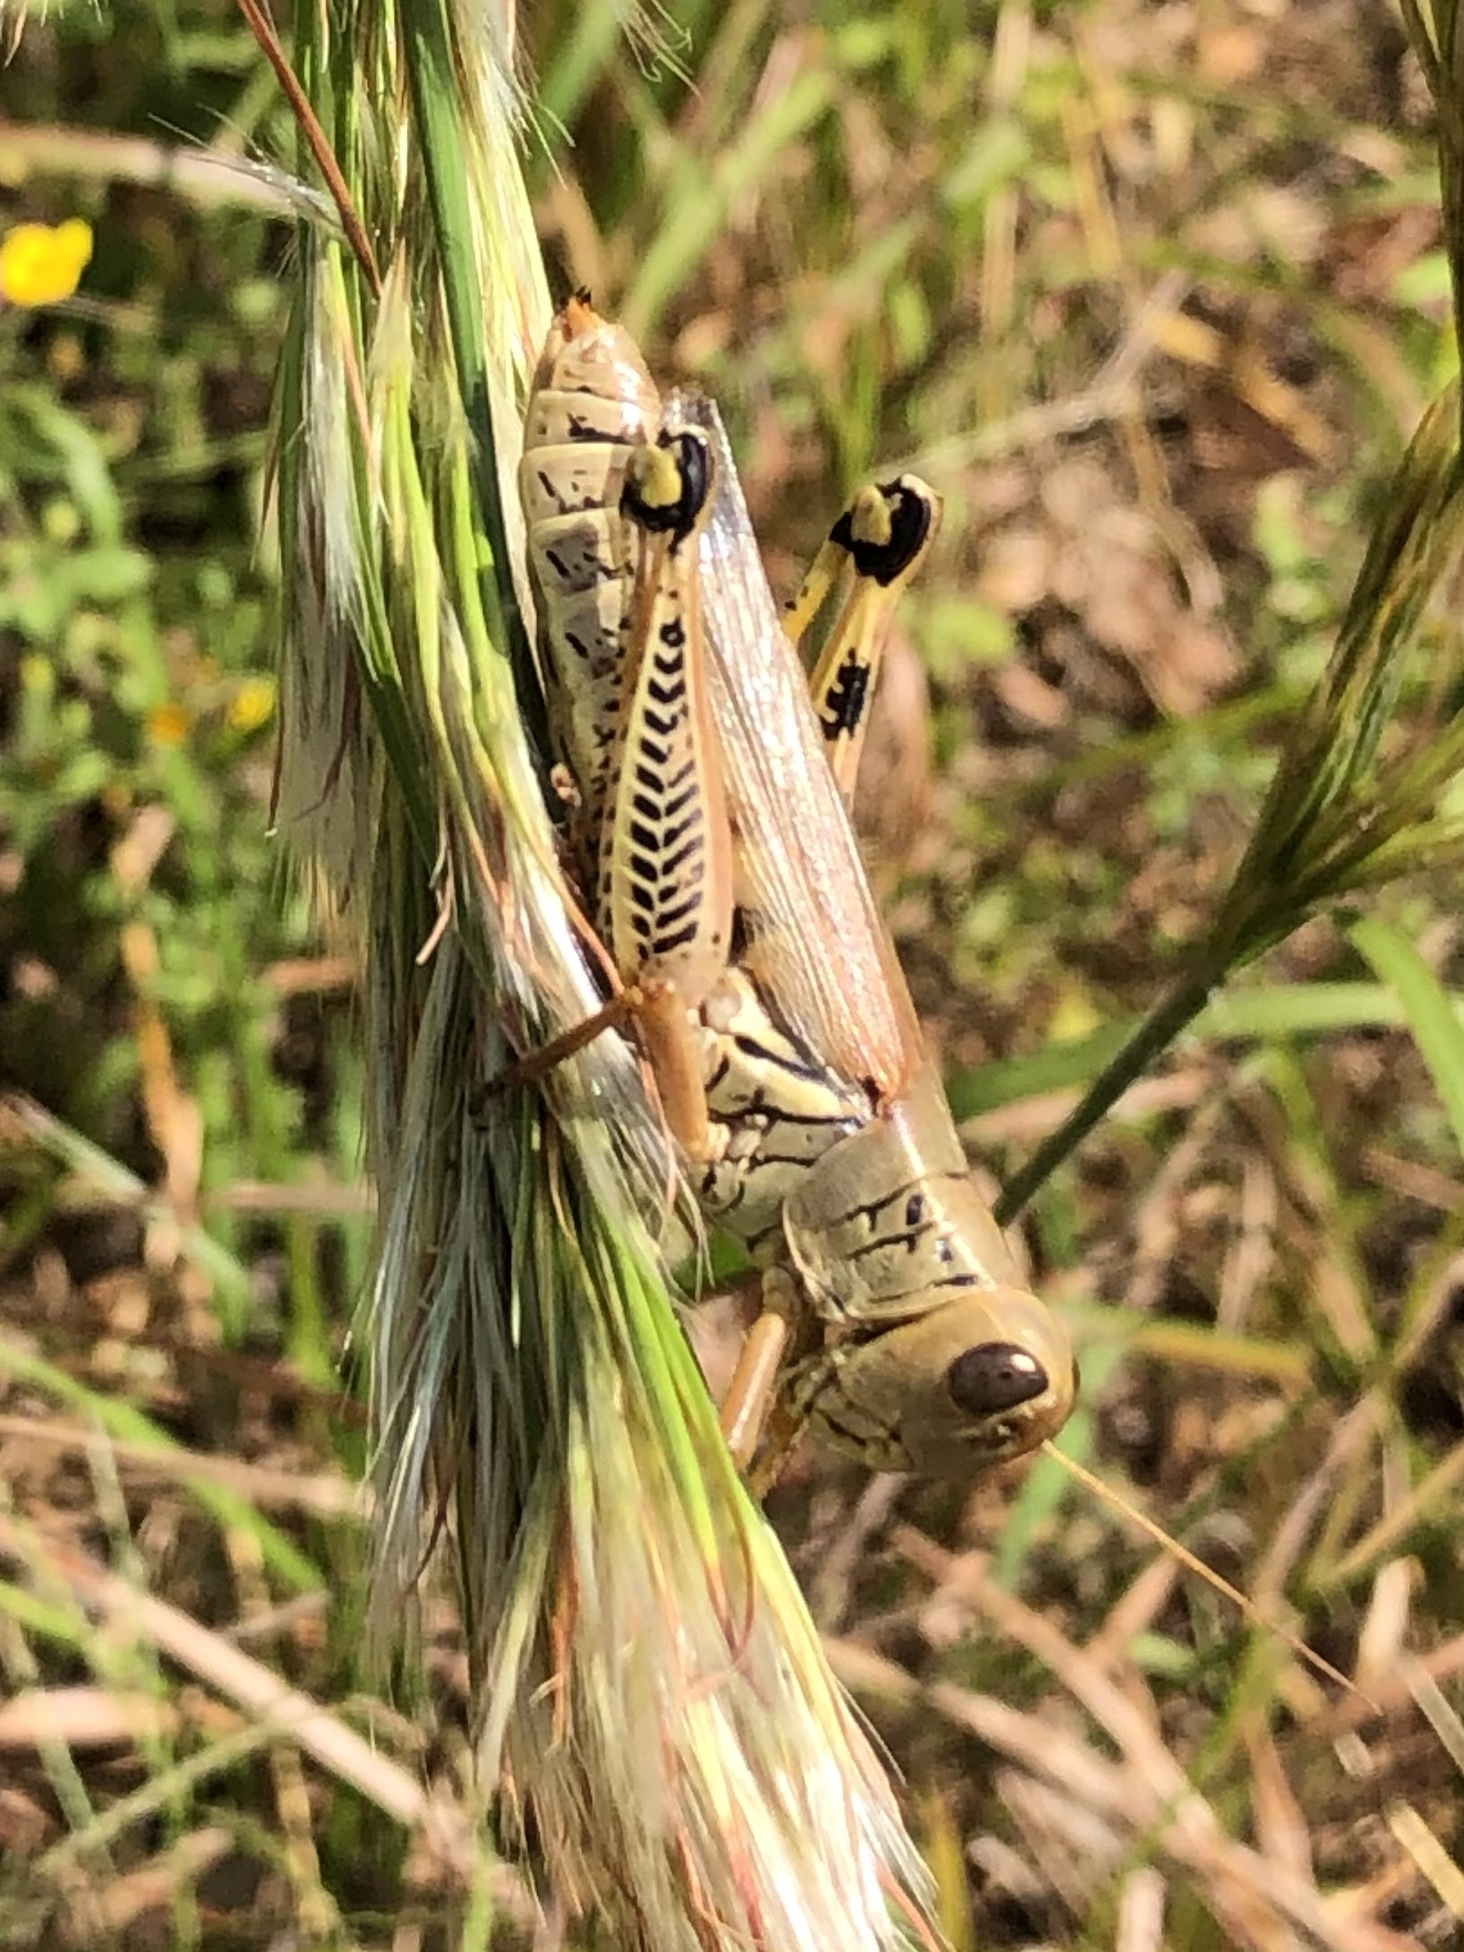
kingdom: Animalia
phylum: Arthropoda
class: Insecta
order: Orthoptera
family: Acrididae
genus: Melanoplus
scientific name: Melanoplus differentialis
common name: Differential grasshopper
